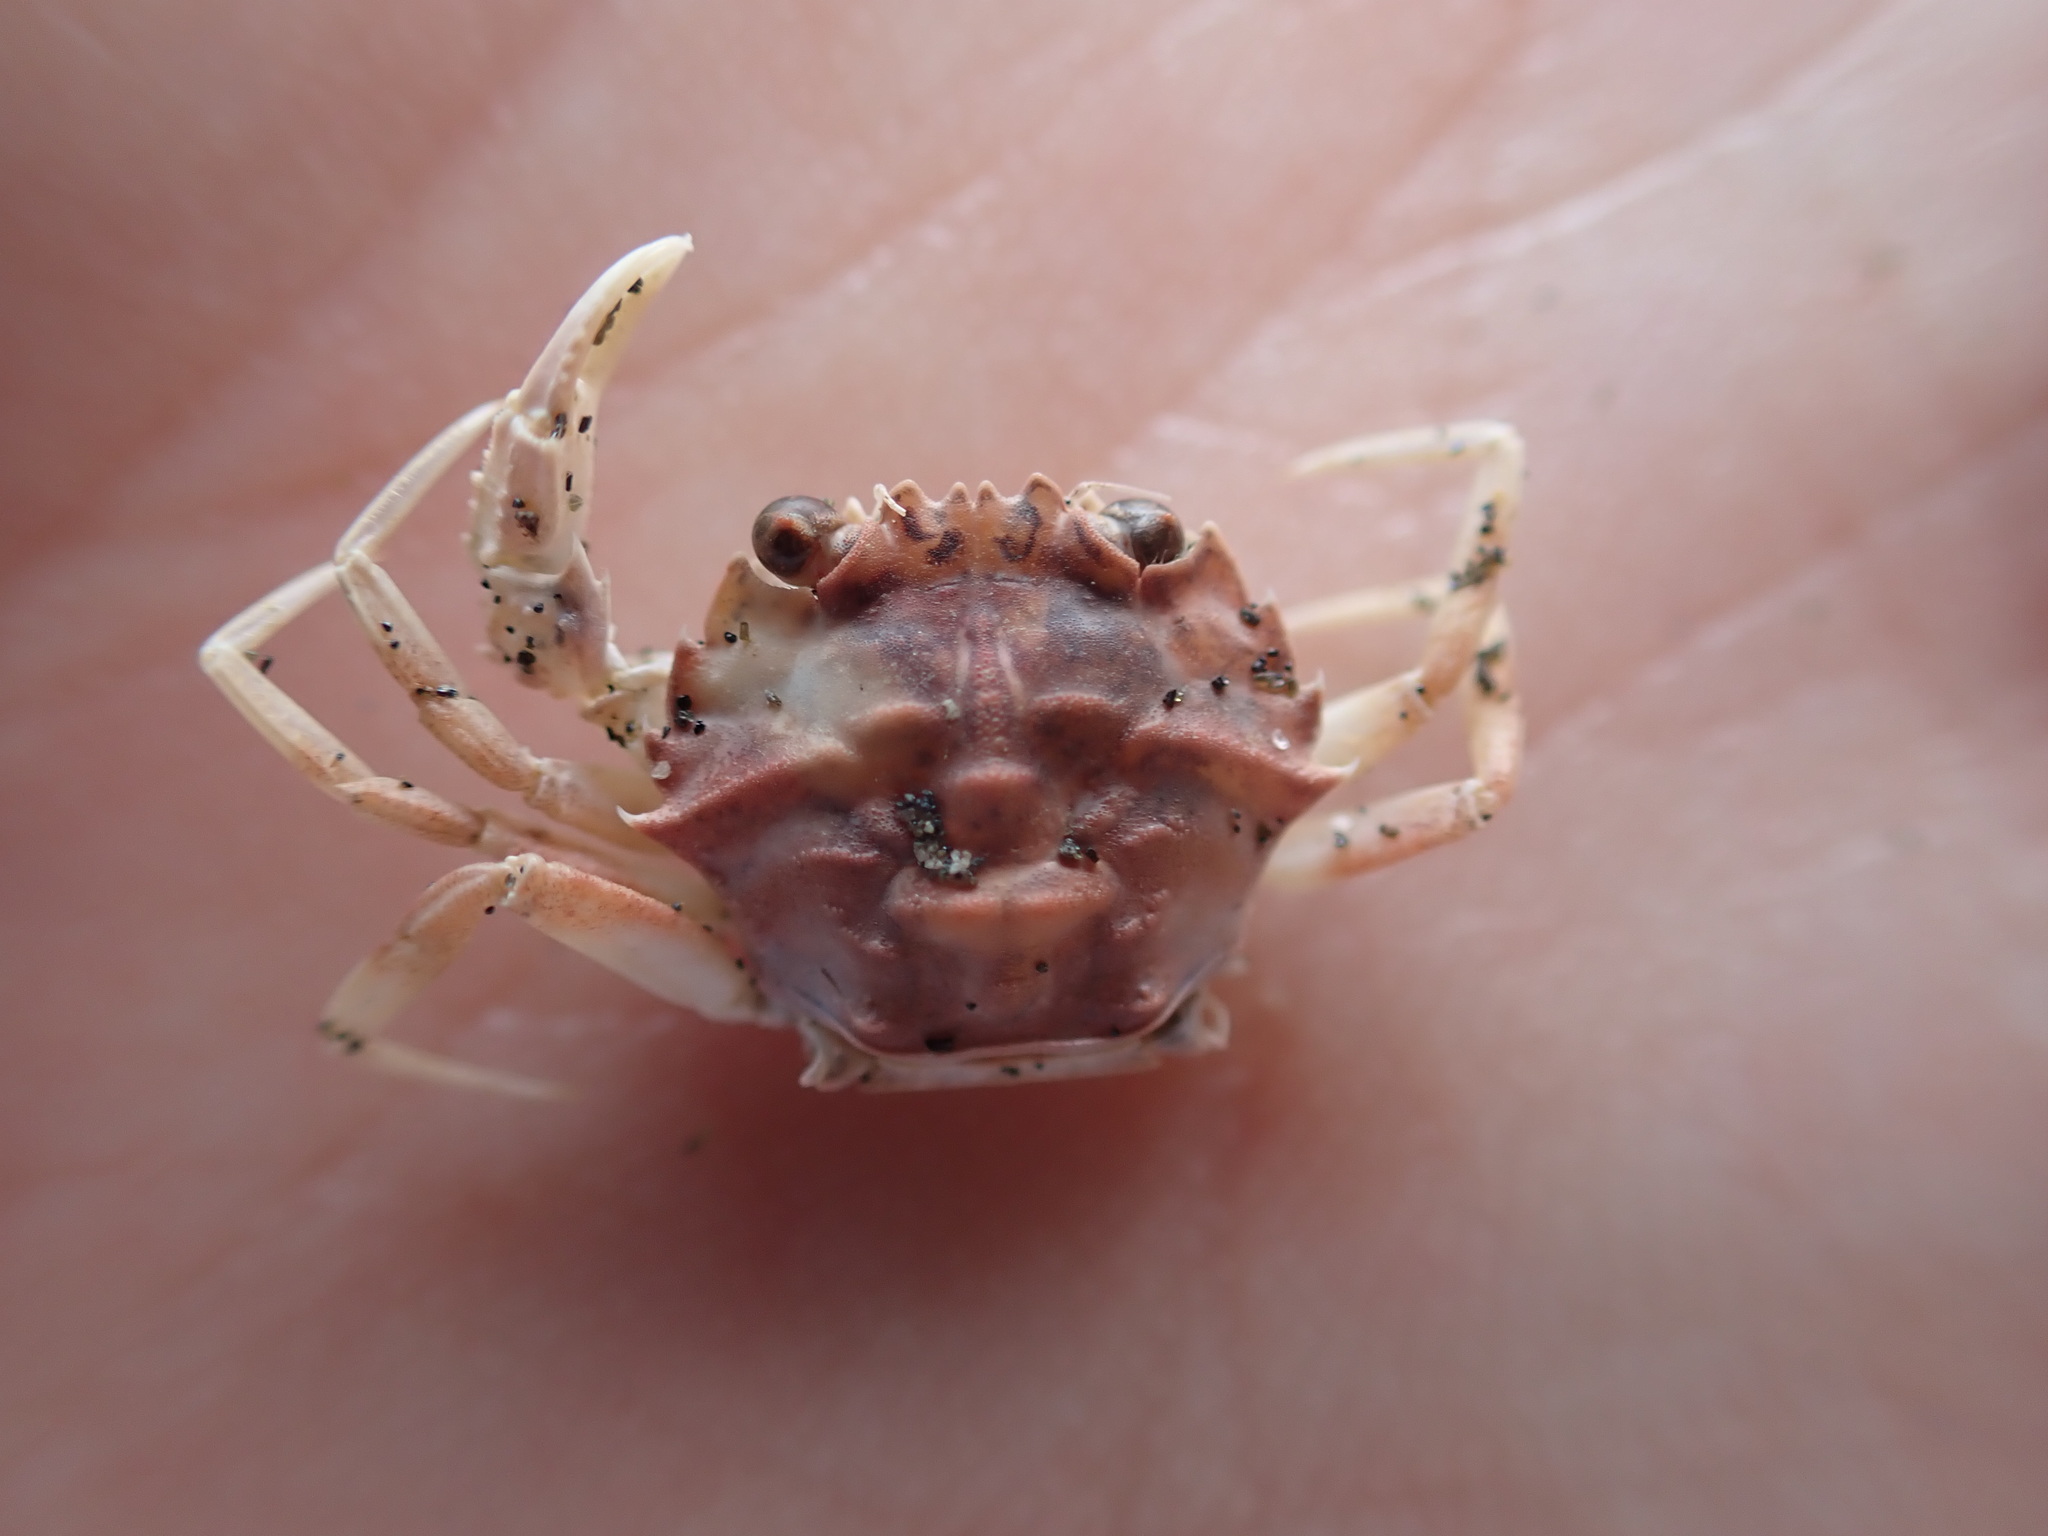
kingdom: Animalia
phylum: Arthropoda
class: Malacostraca
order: Decapoda
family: Geryonidae
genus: Nectocarcinus
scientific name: Nectocarcinus antarcticus
